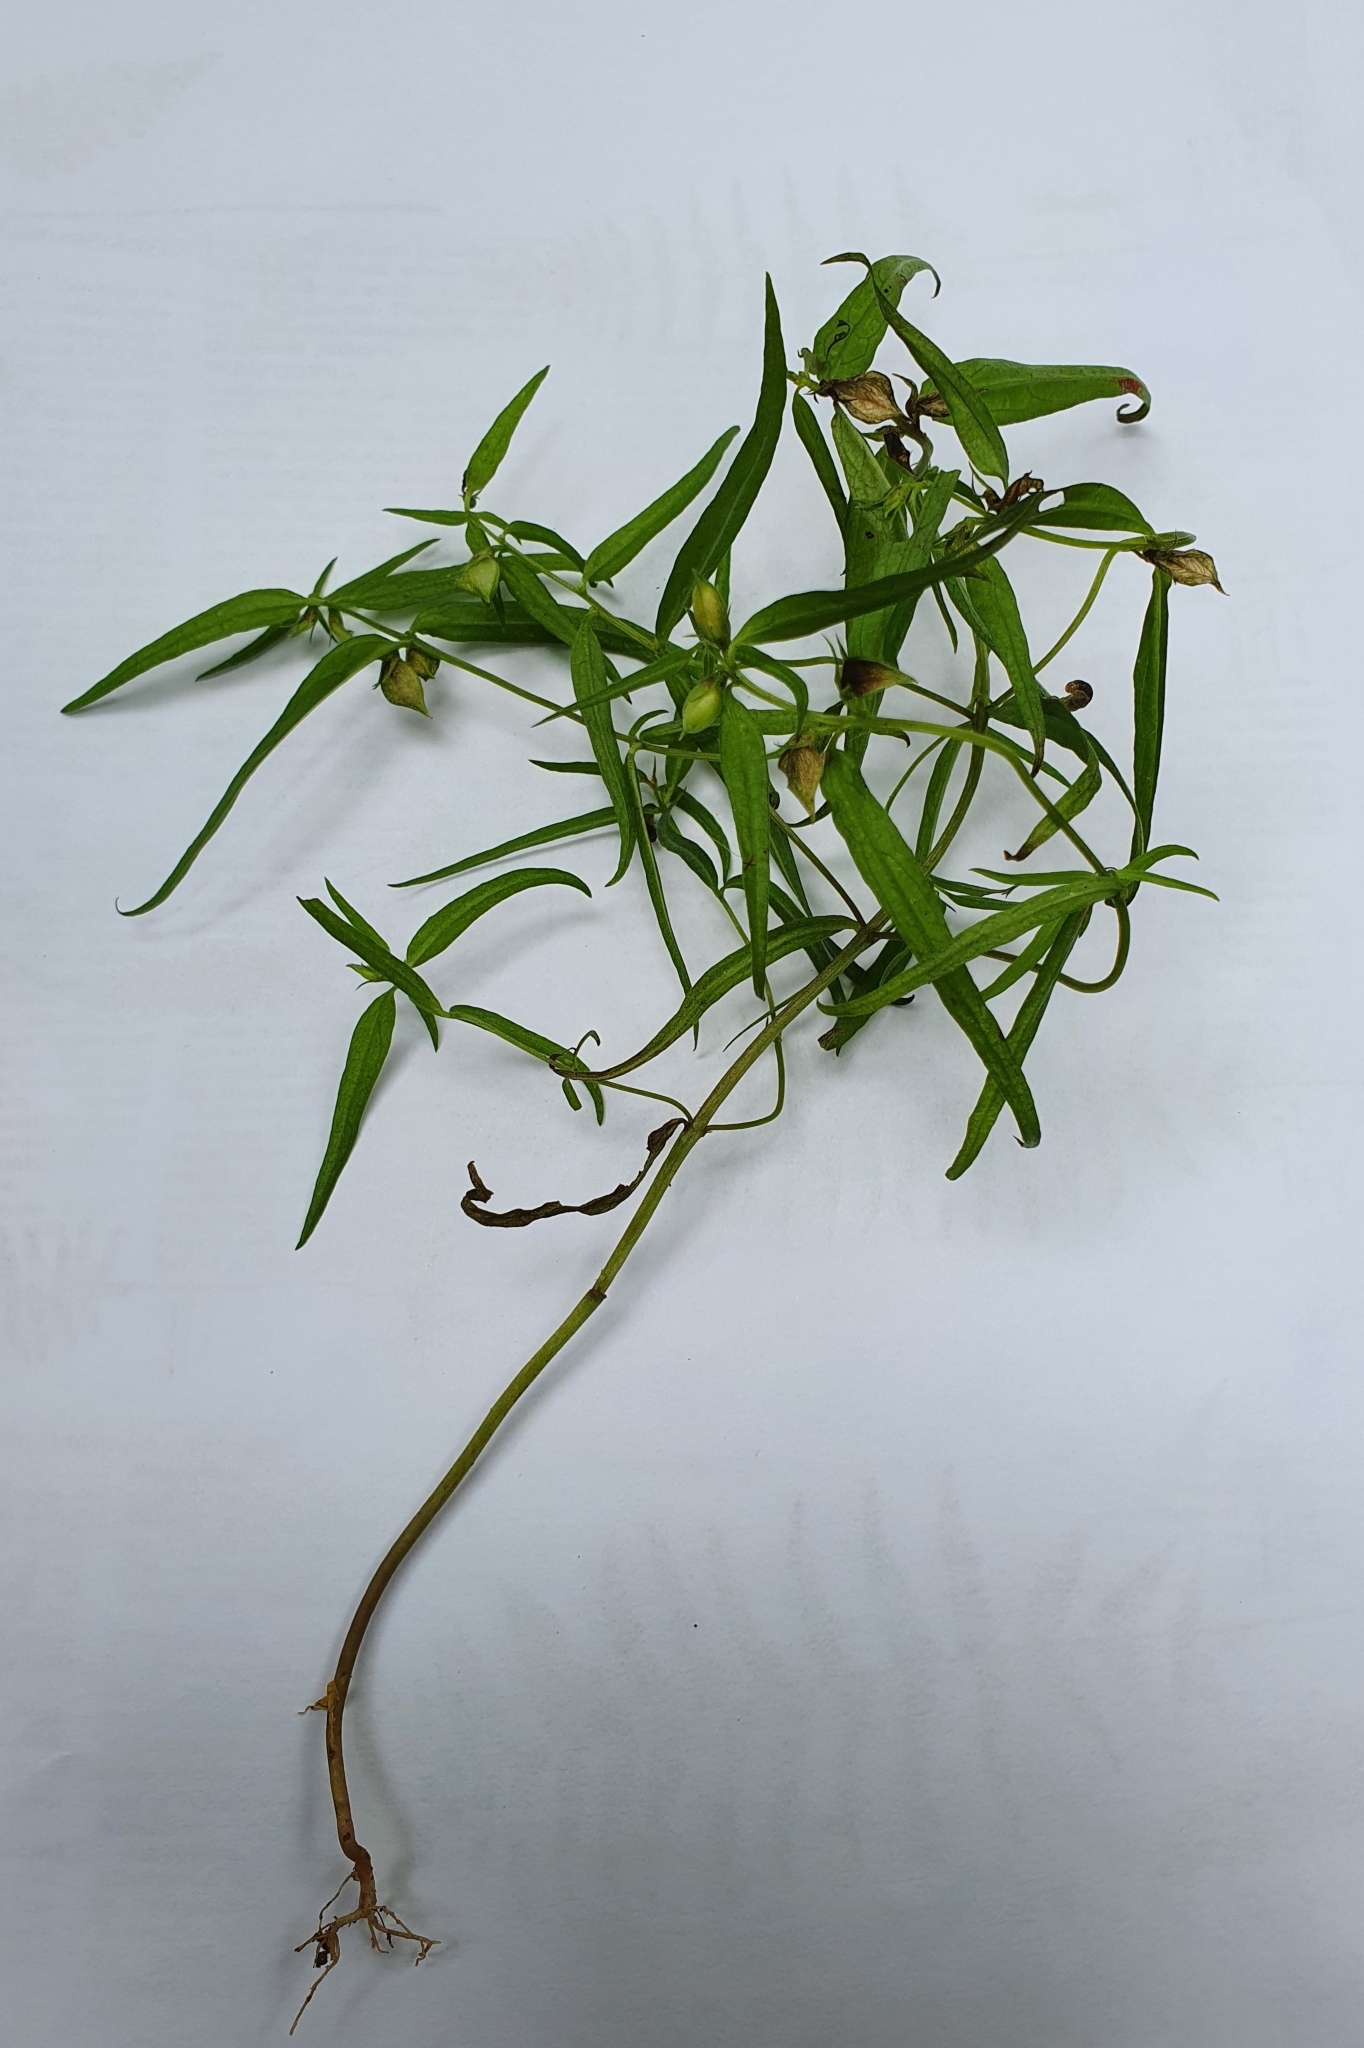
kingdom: Plantae
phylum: Tracheophyta
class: Magnoliopsida
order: Lamiales
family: Orobanchaceae
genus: Melampyrum
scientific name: Melampyrum sylvaticum
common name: Small cow-wheat
